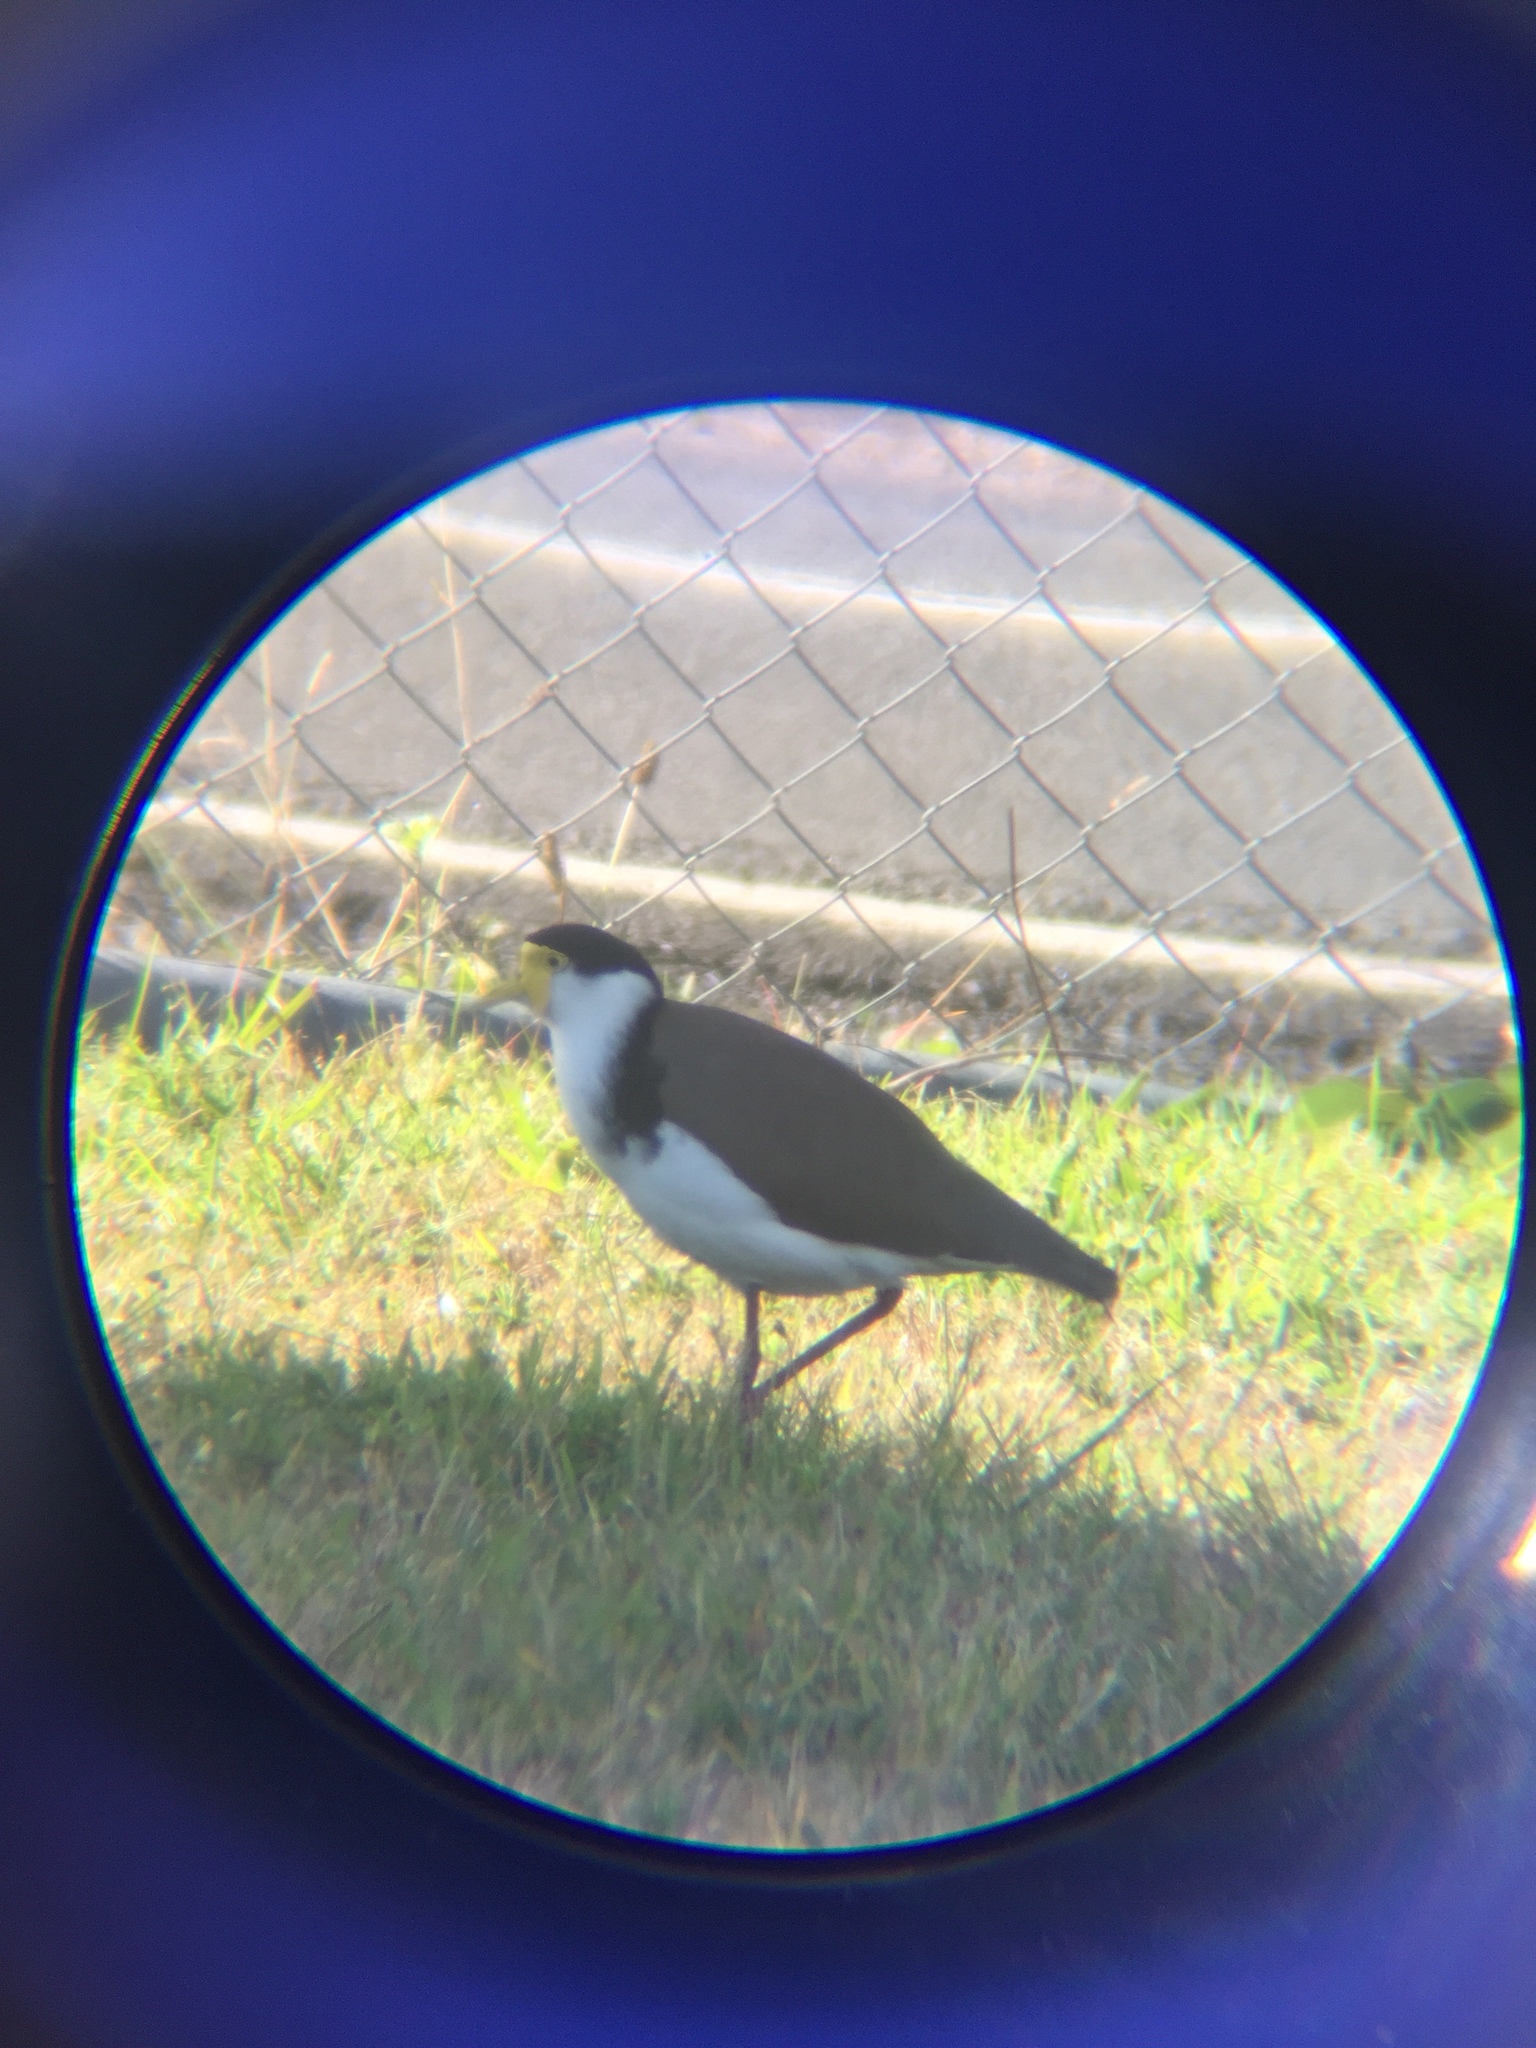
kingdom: Animalia
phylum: Chordata
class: Aves
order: Charadriiformes
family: Charadriidae
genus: Vanellus
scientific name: Vanellus miles
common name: Masked lapwing
